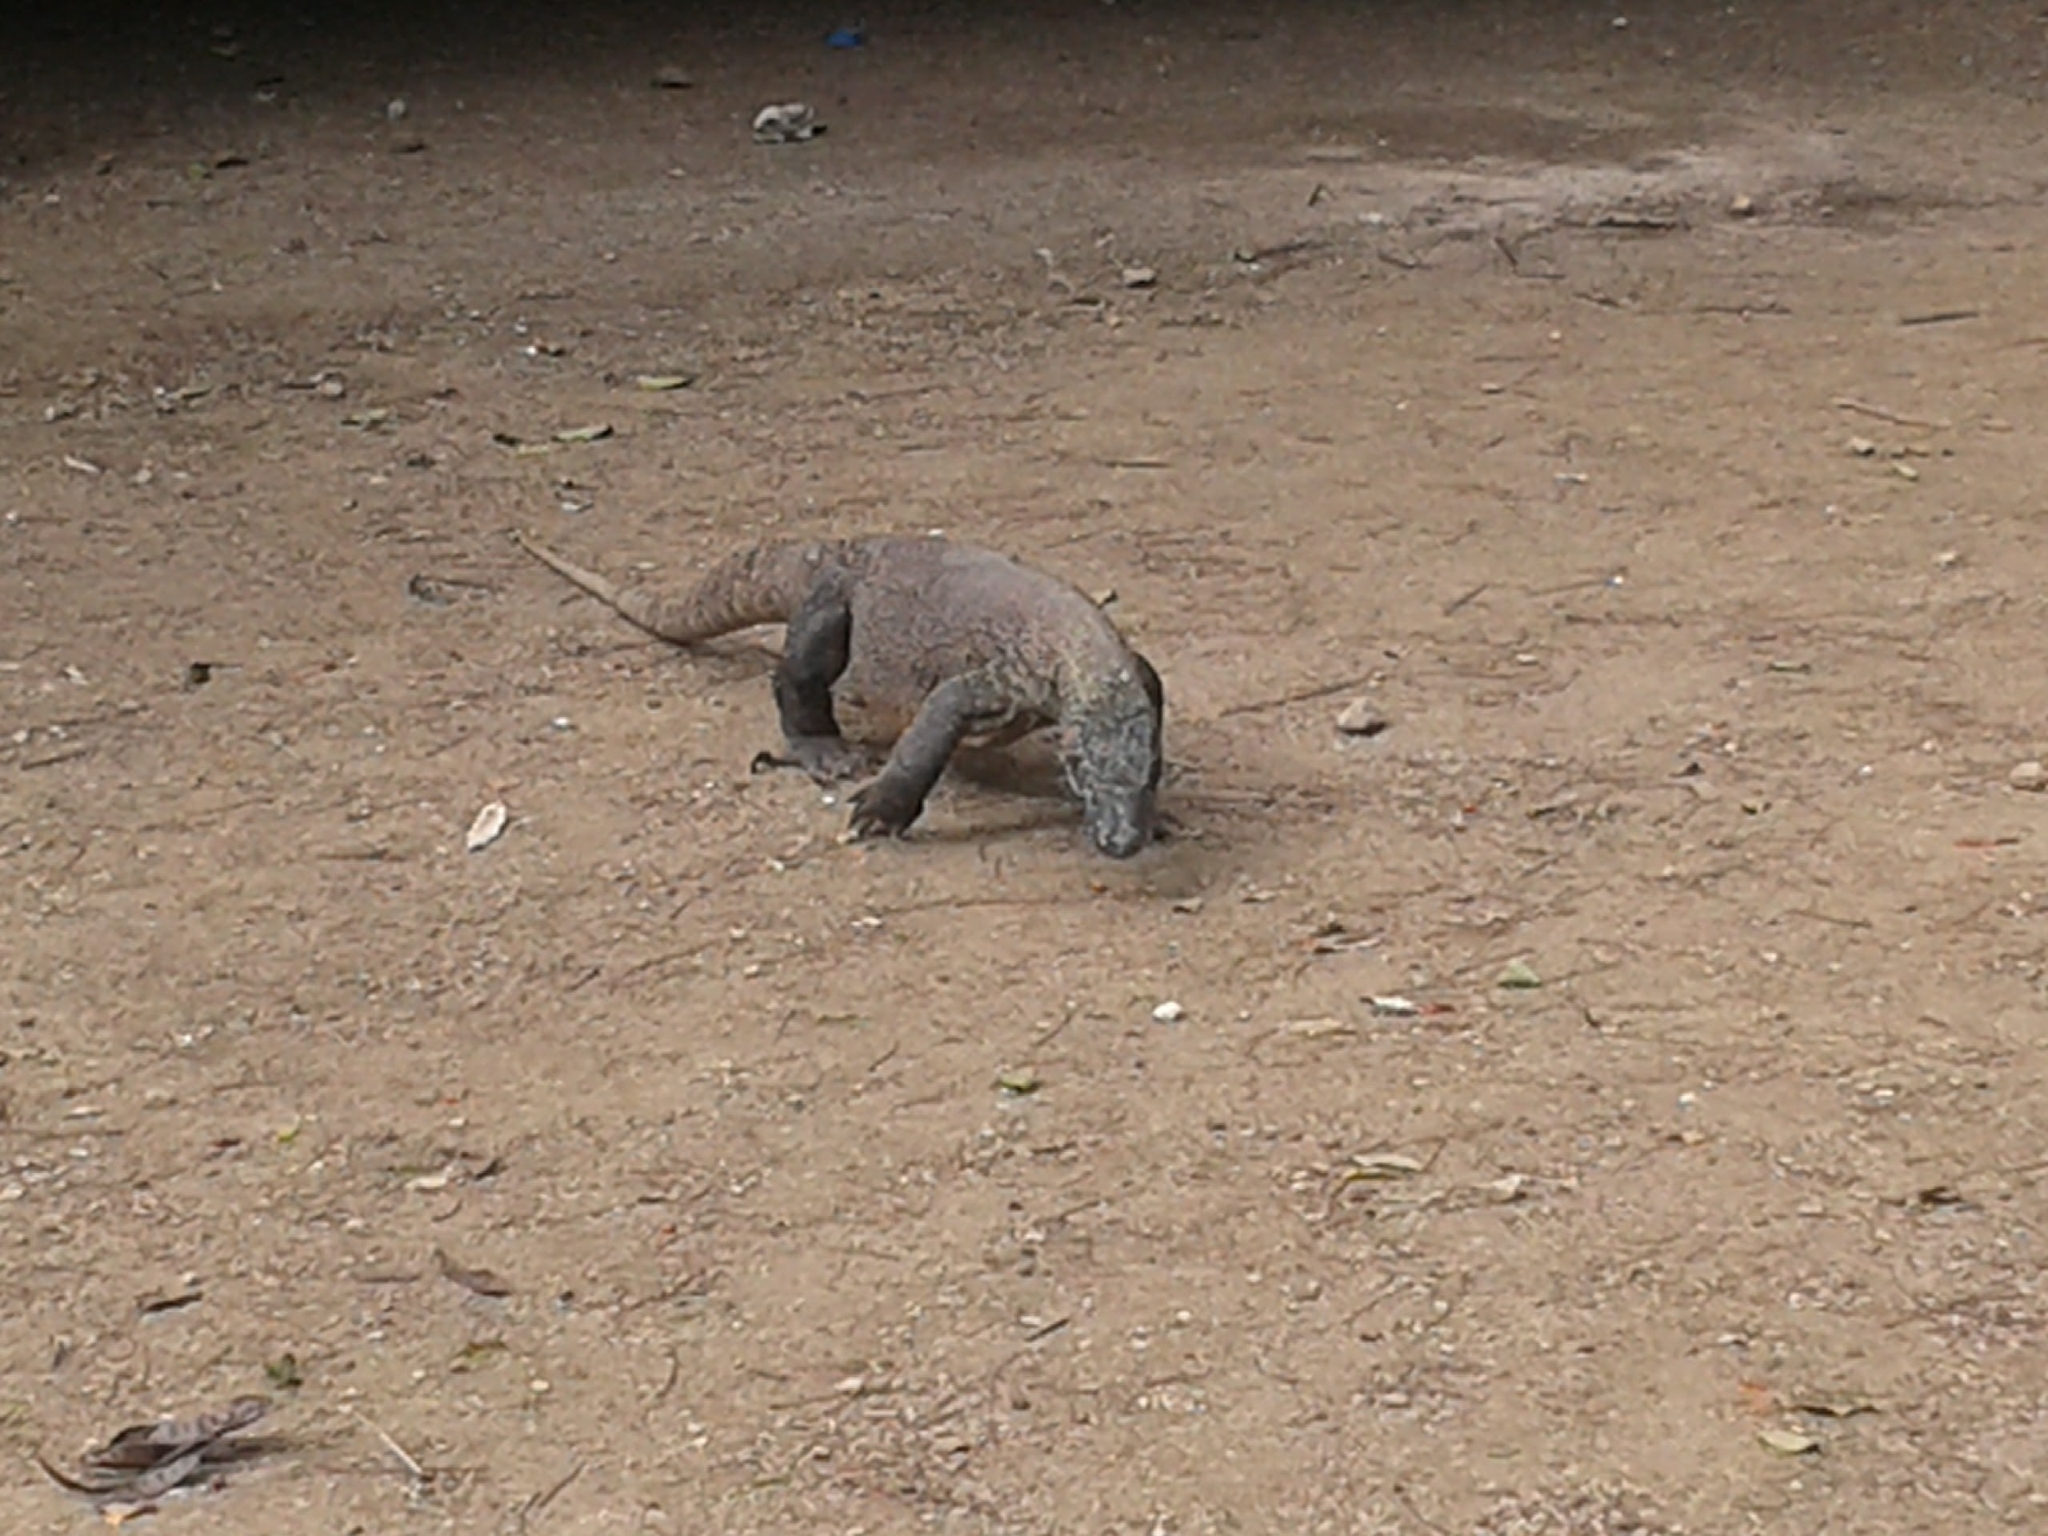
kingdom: Animalia
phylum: Chordata
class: Squamata
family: Varanidae
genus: Varanus
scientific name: Varanus komodoensis
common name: Komodo dragon
